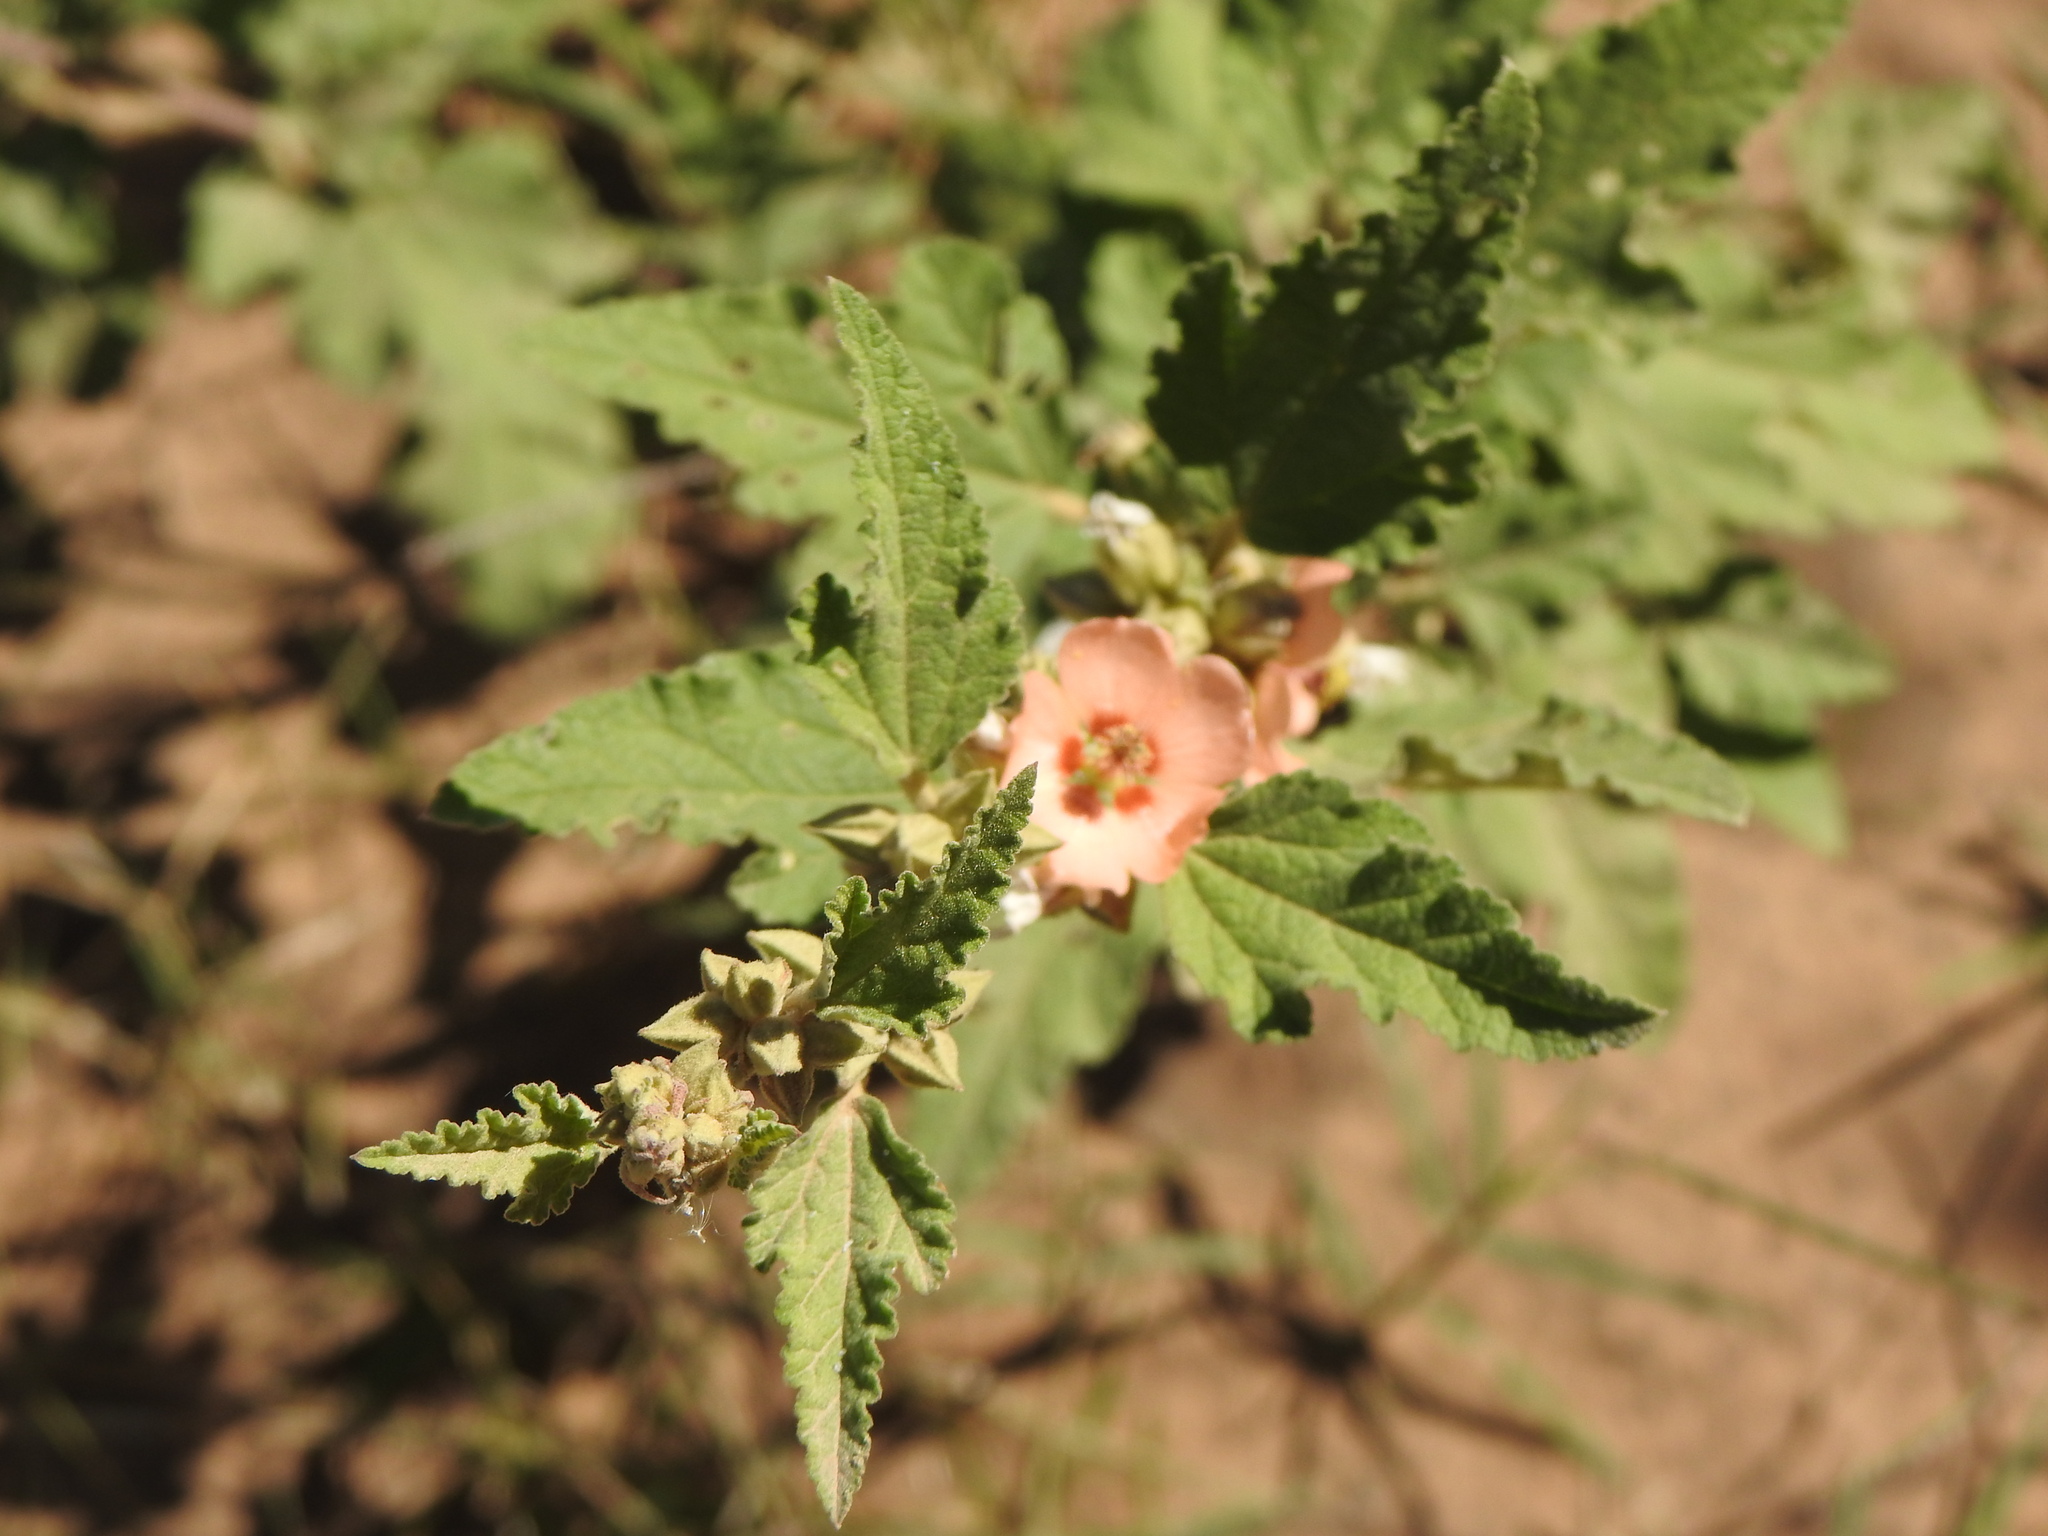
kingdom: Plantae
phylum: Tracheophyta
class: Magnoliopsida
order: Malvales
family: Malvaceae
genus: Sphaeralcea
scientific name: Sphaeralcea bonariensis
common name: Latin globemallow
